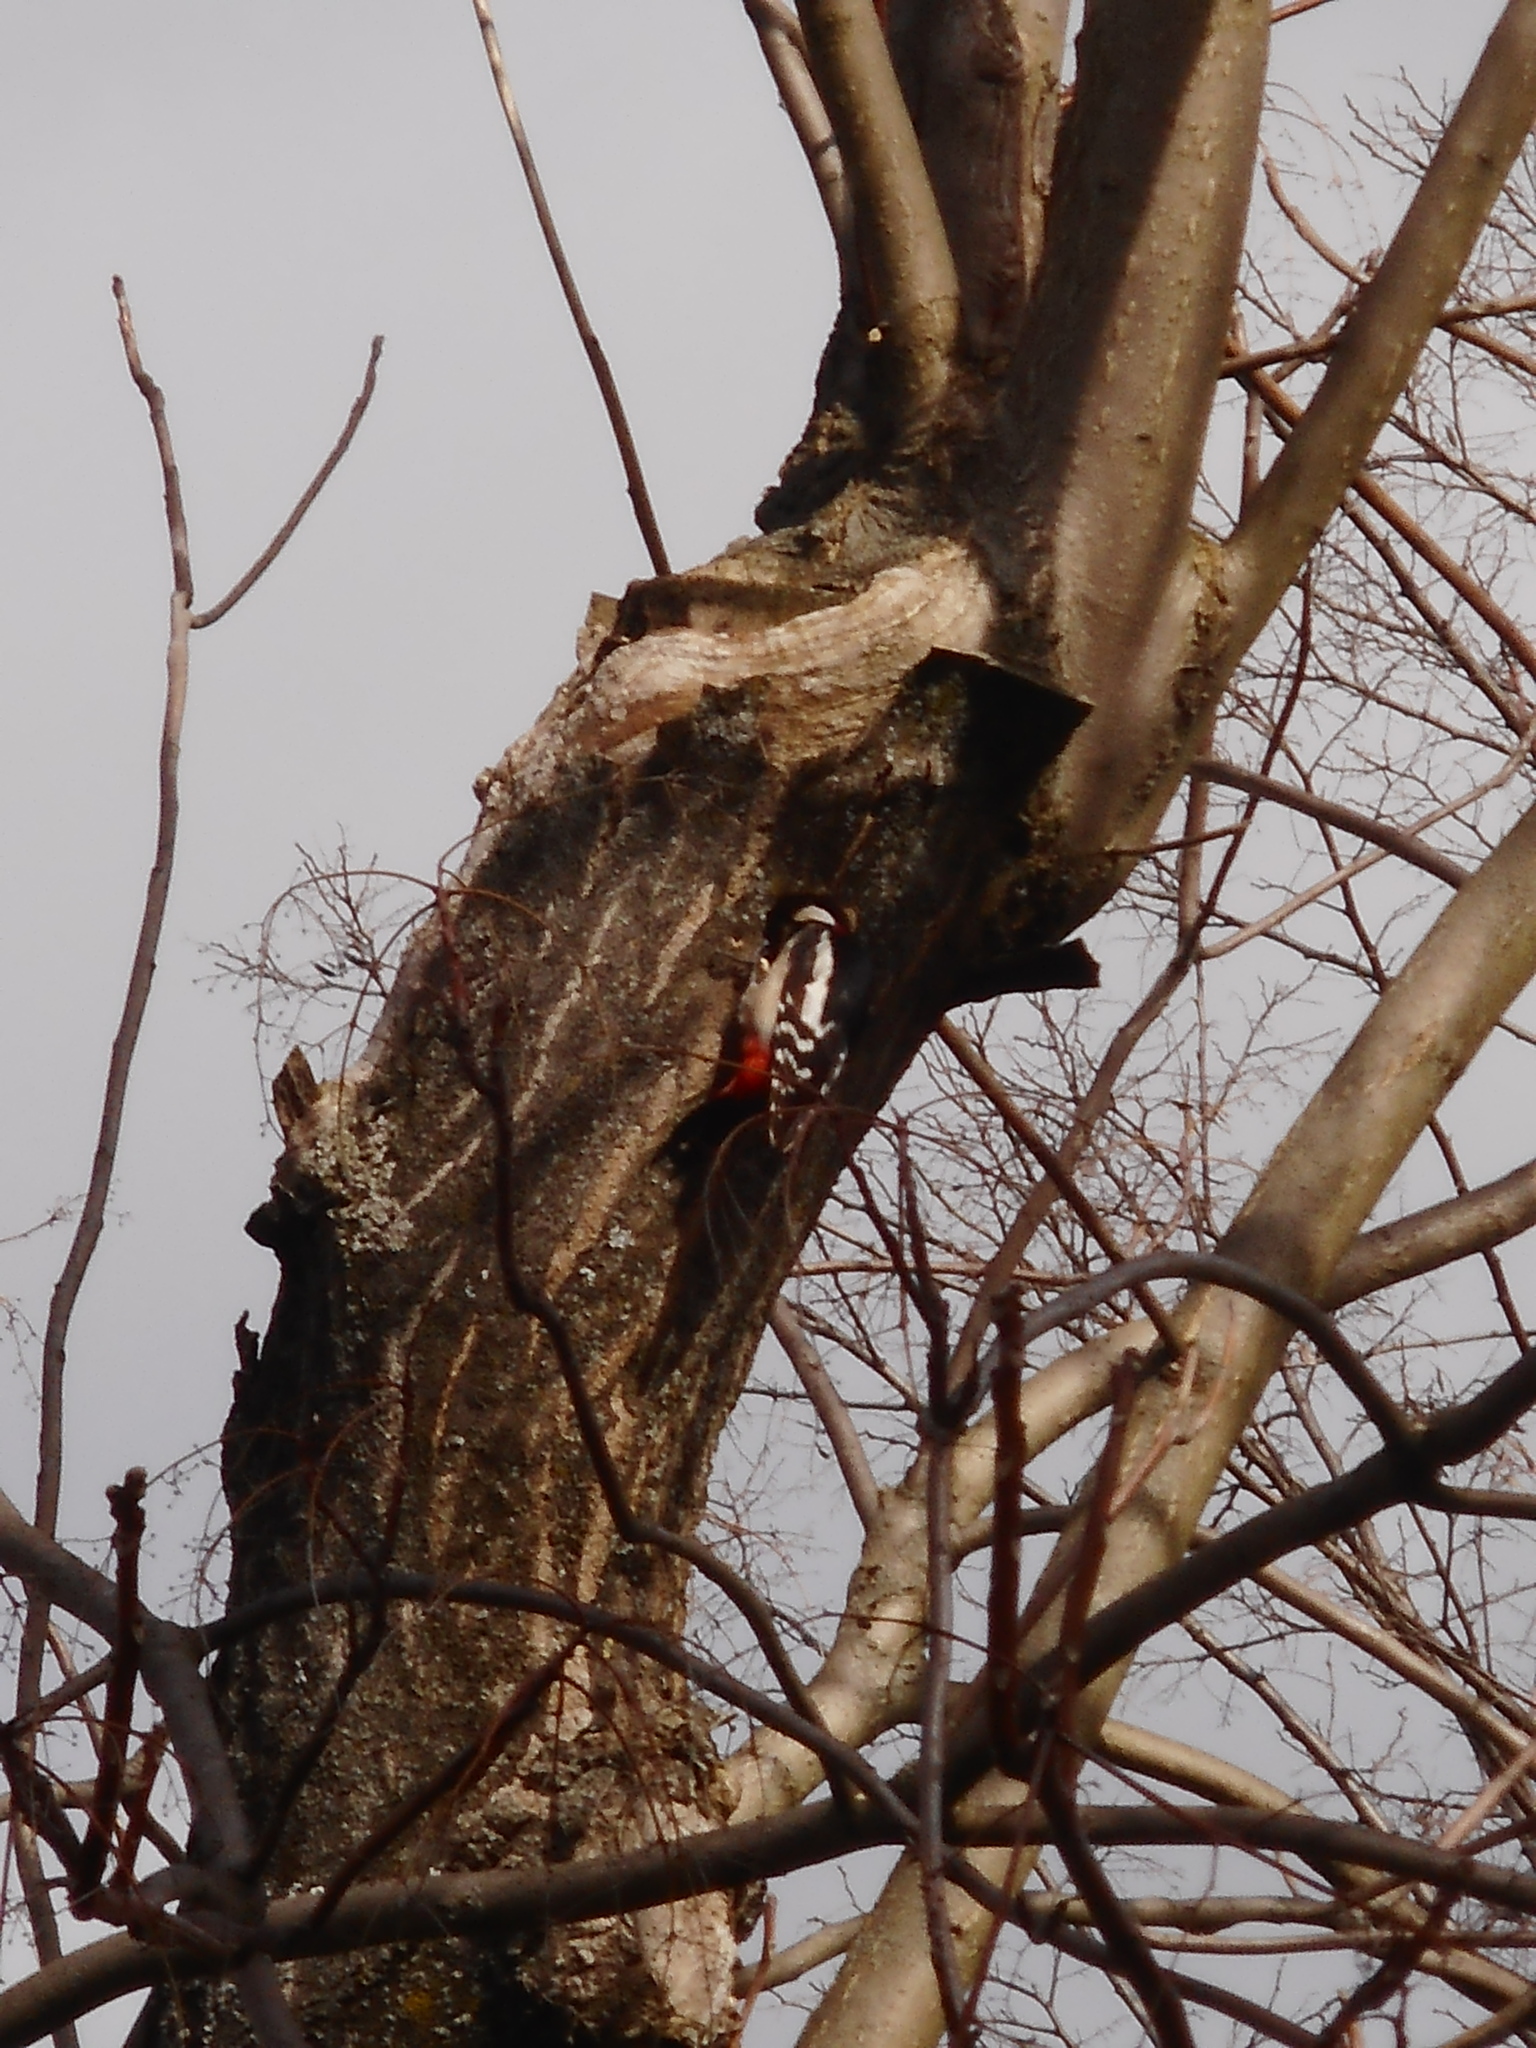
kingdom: Animalia
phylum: Chordata
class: Aves
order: Piciformes
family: Picidae
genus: Dendrocopos
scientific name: Dendrocopos major
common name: Great spotted woodpecker
